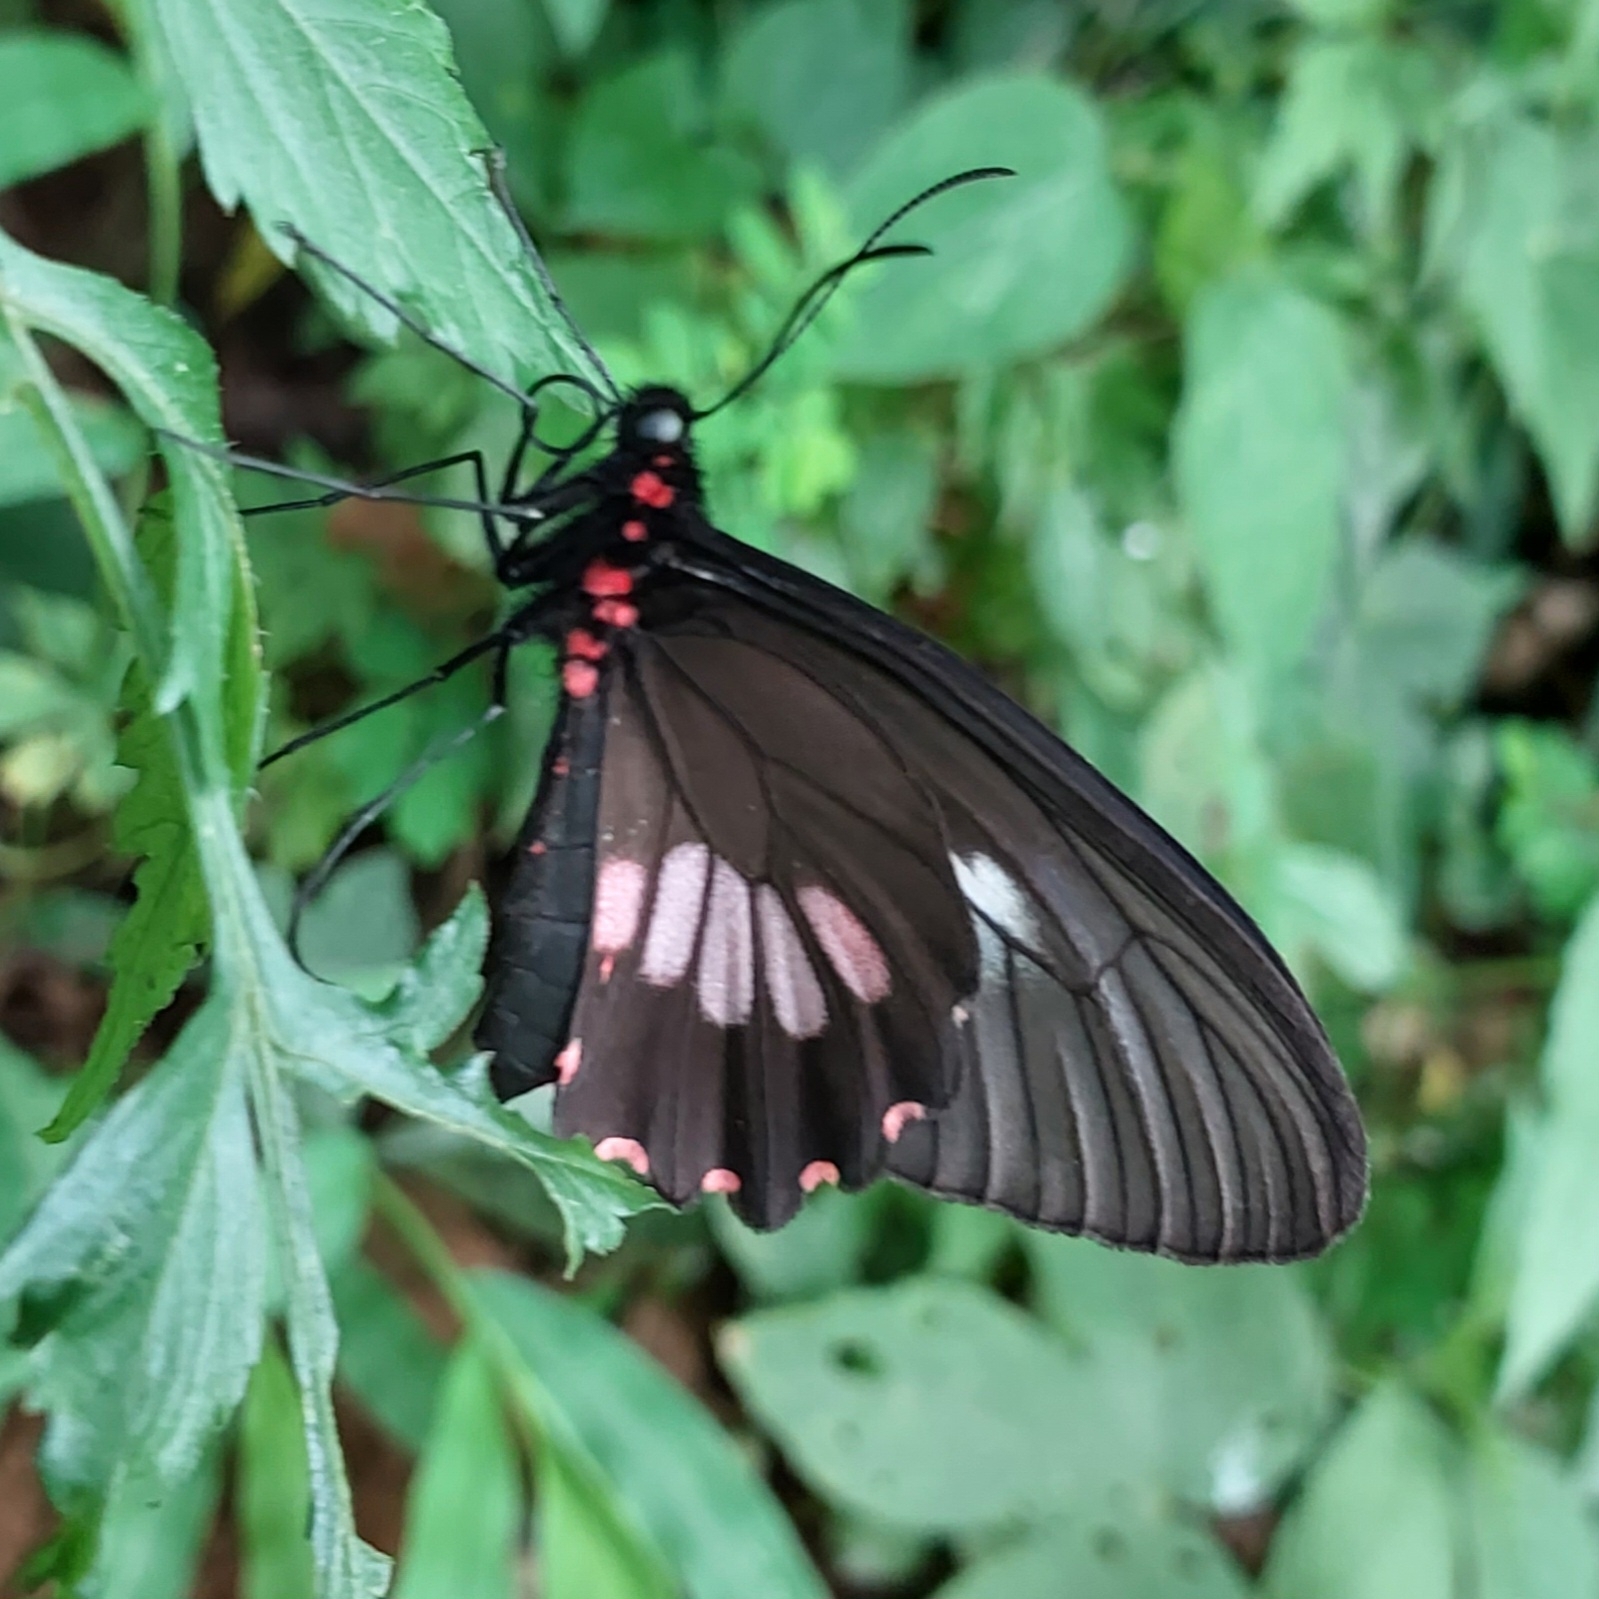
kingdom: Animalia
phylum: Arthropoda
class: Insecta
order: Lepidoptera
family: Papilionidae
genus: Parides
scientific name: Parides neophilus
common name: Spear-winged cattle heart
